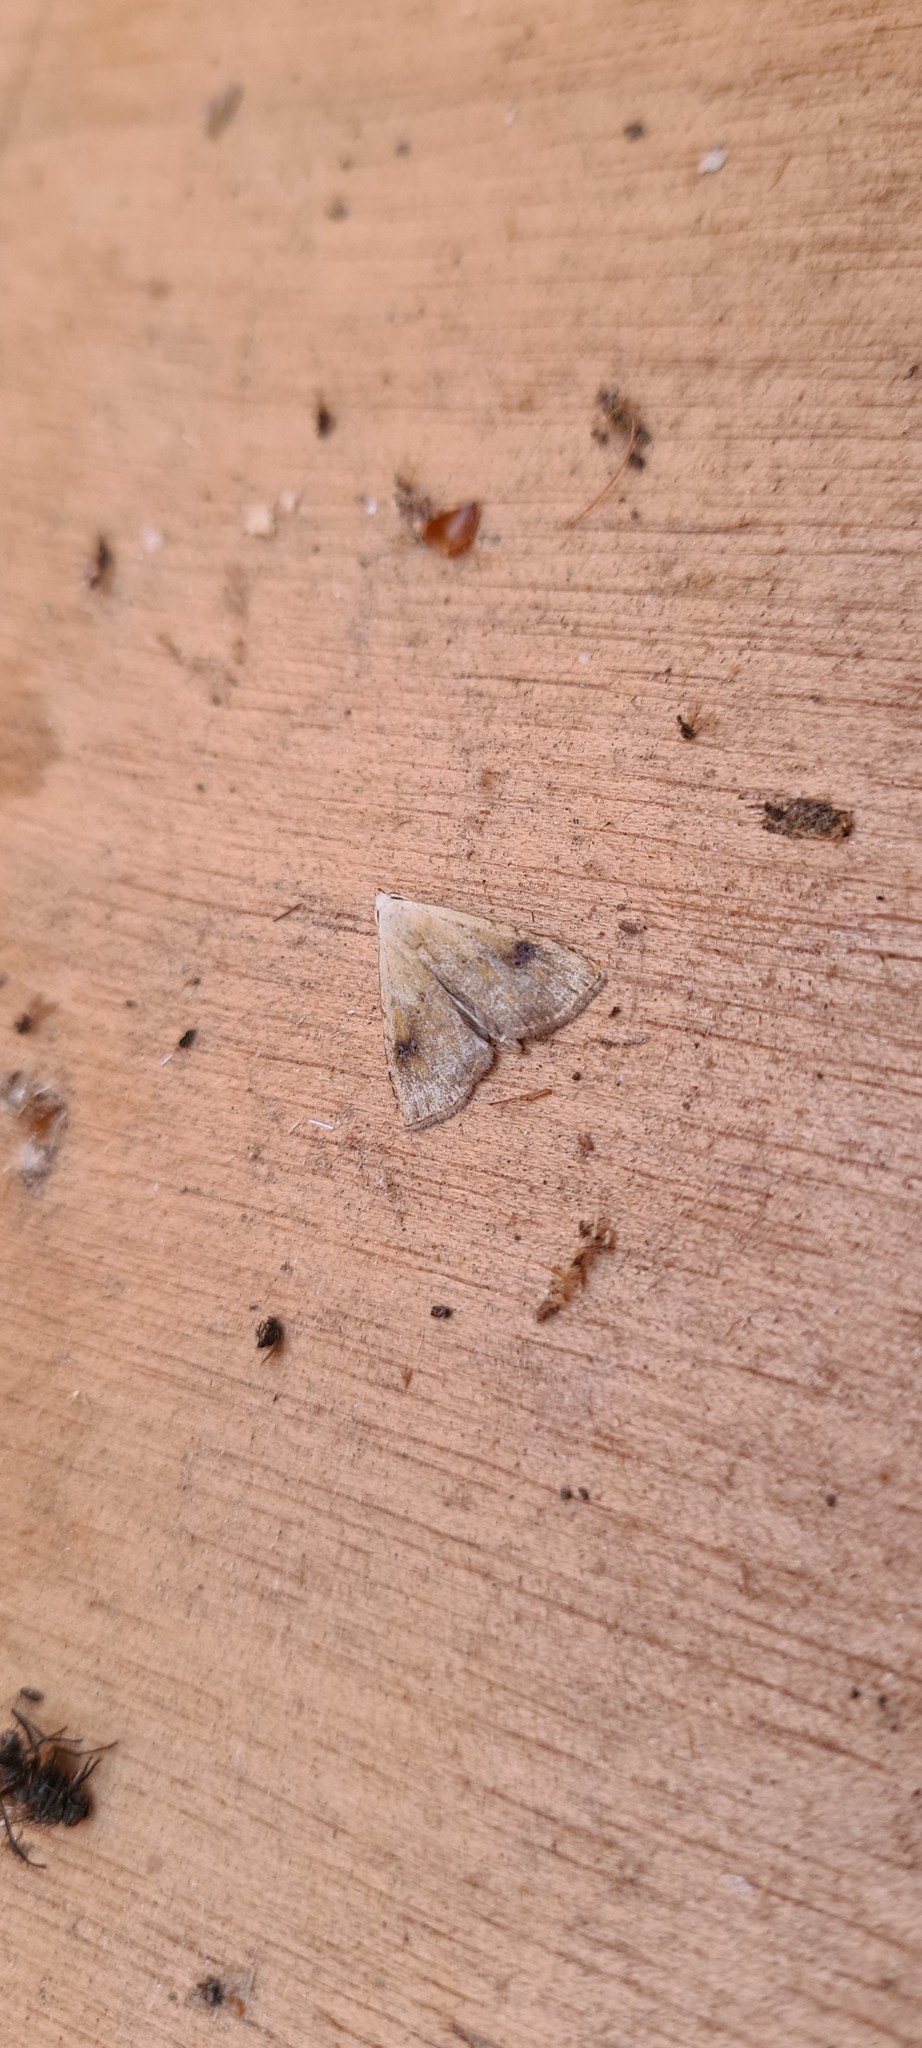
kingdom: Animalia
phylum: Arthropoda
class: Insecta
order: Lepidoptera
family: Erebidae
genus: Rivula
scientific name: Rivula sericealis
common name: Straw dot
